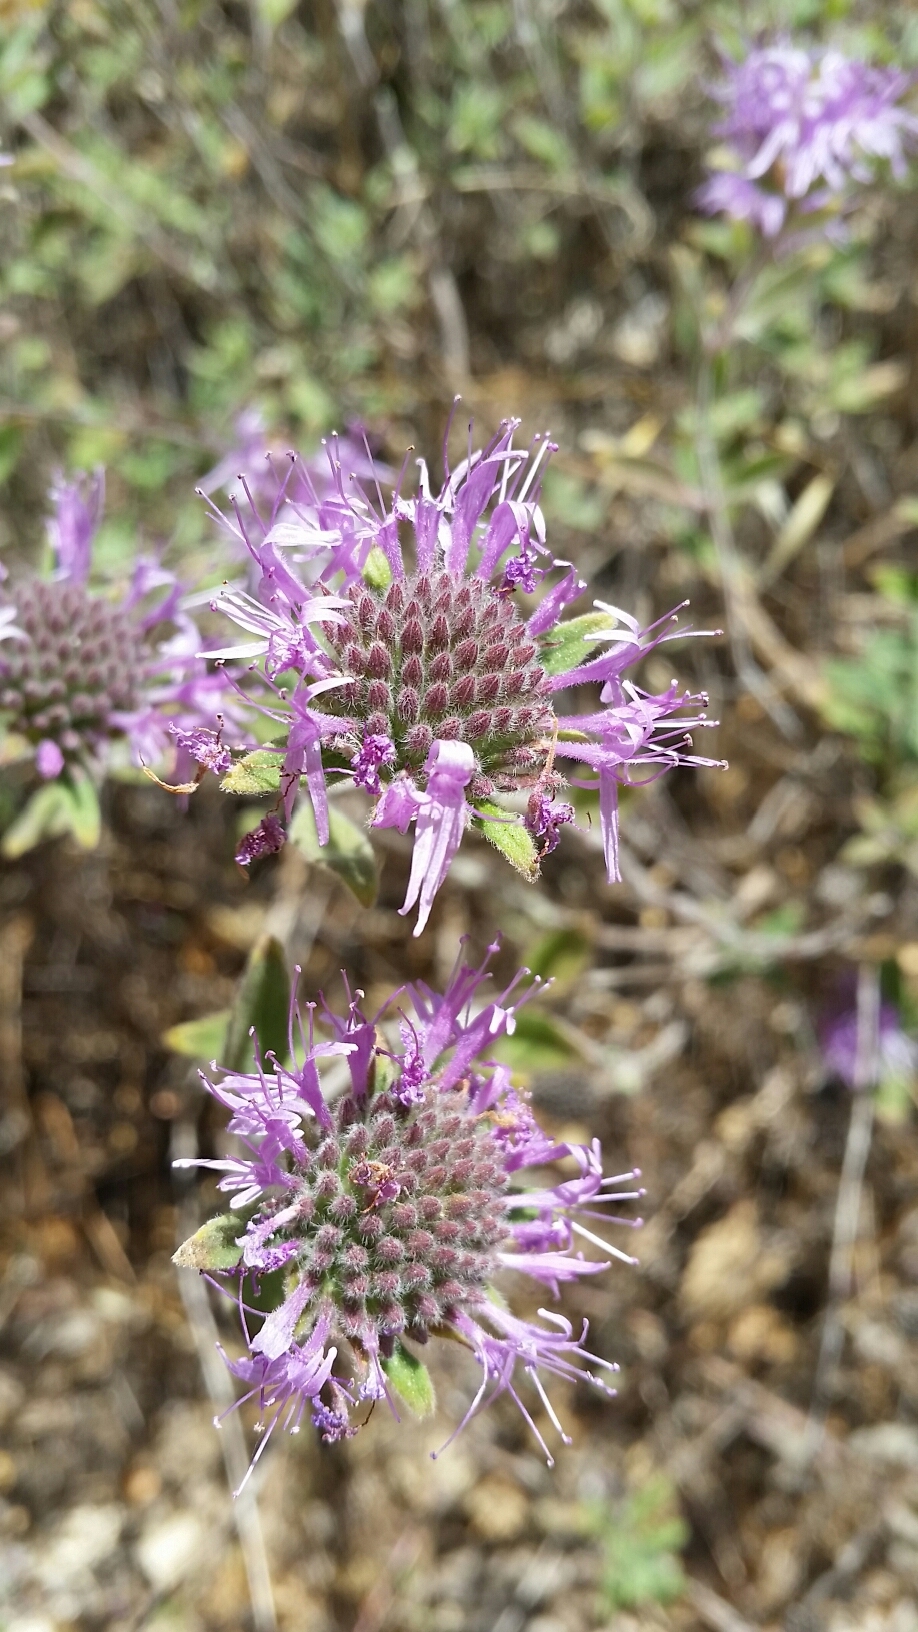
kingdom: Plantae
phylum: Tracheophyta
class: Magnoliopsida
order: Lamiales
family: Lamiaceae
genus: Monardella
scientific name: Monardella odoratissima
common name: Pacific monardella
